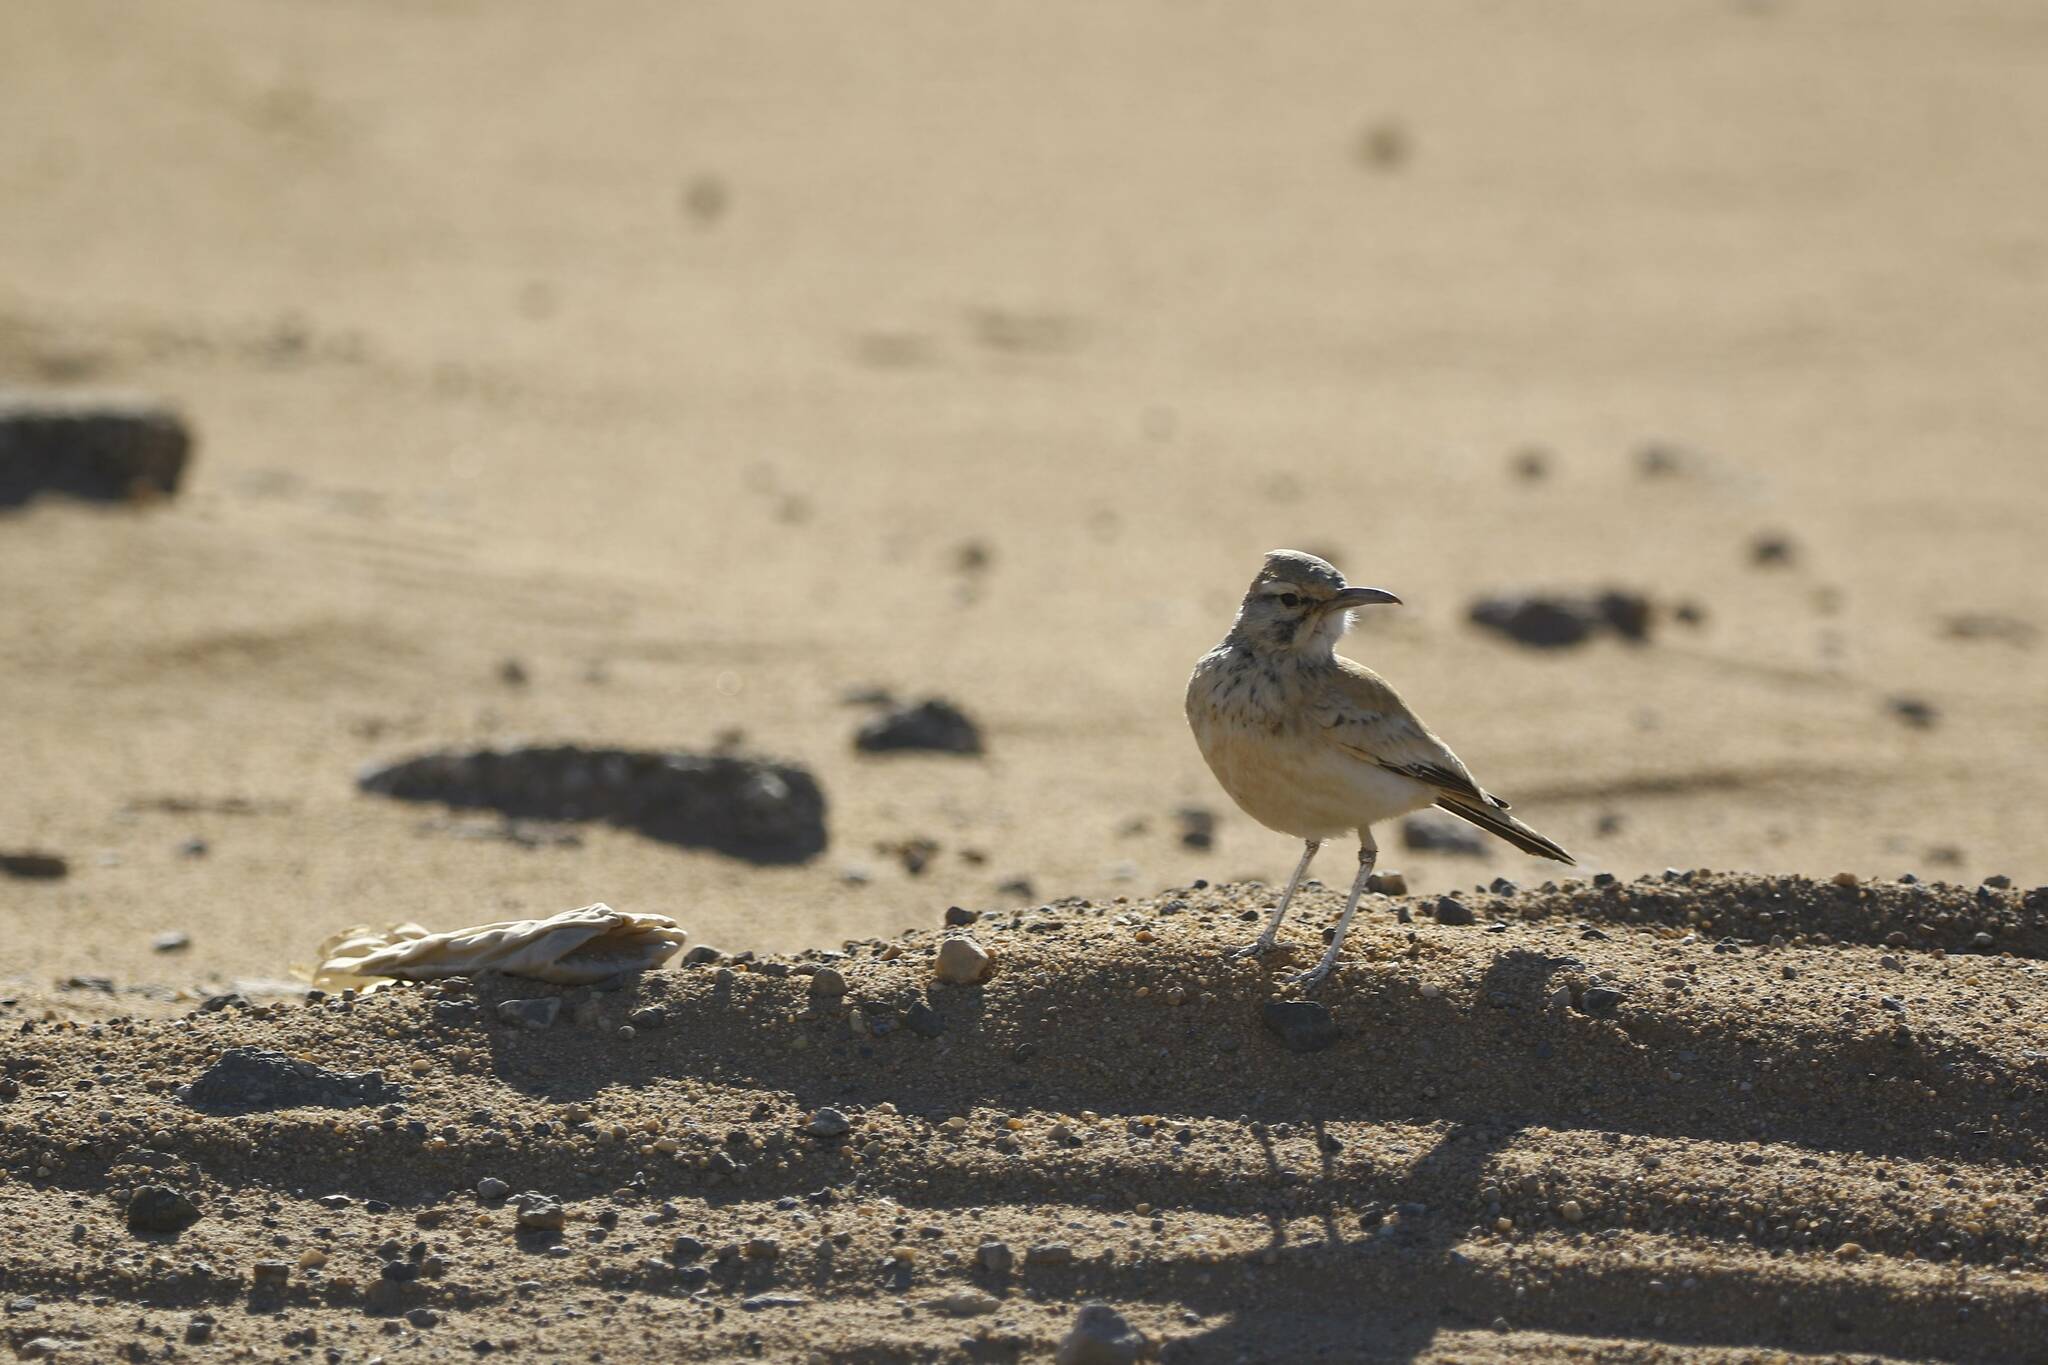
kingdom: Animalia
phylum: Chordata
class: Aves
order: Passeriformes
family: Alaudidae
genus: Alaemon
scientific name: Alaemon alaudipes
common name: Greater hoopoe-lark
